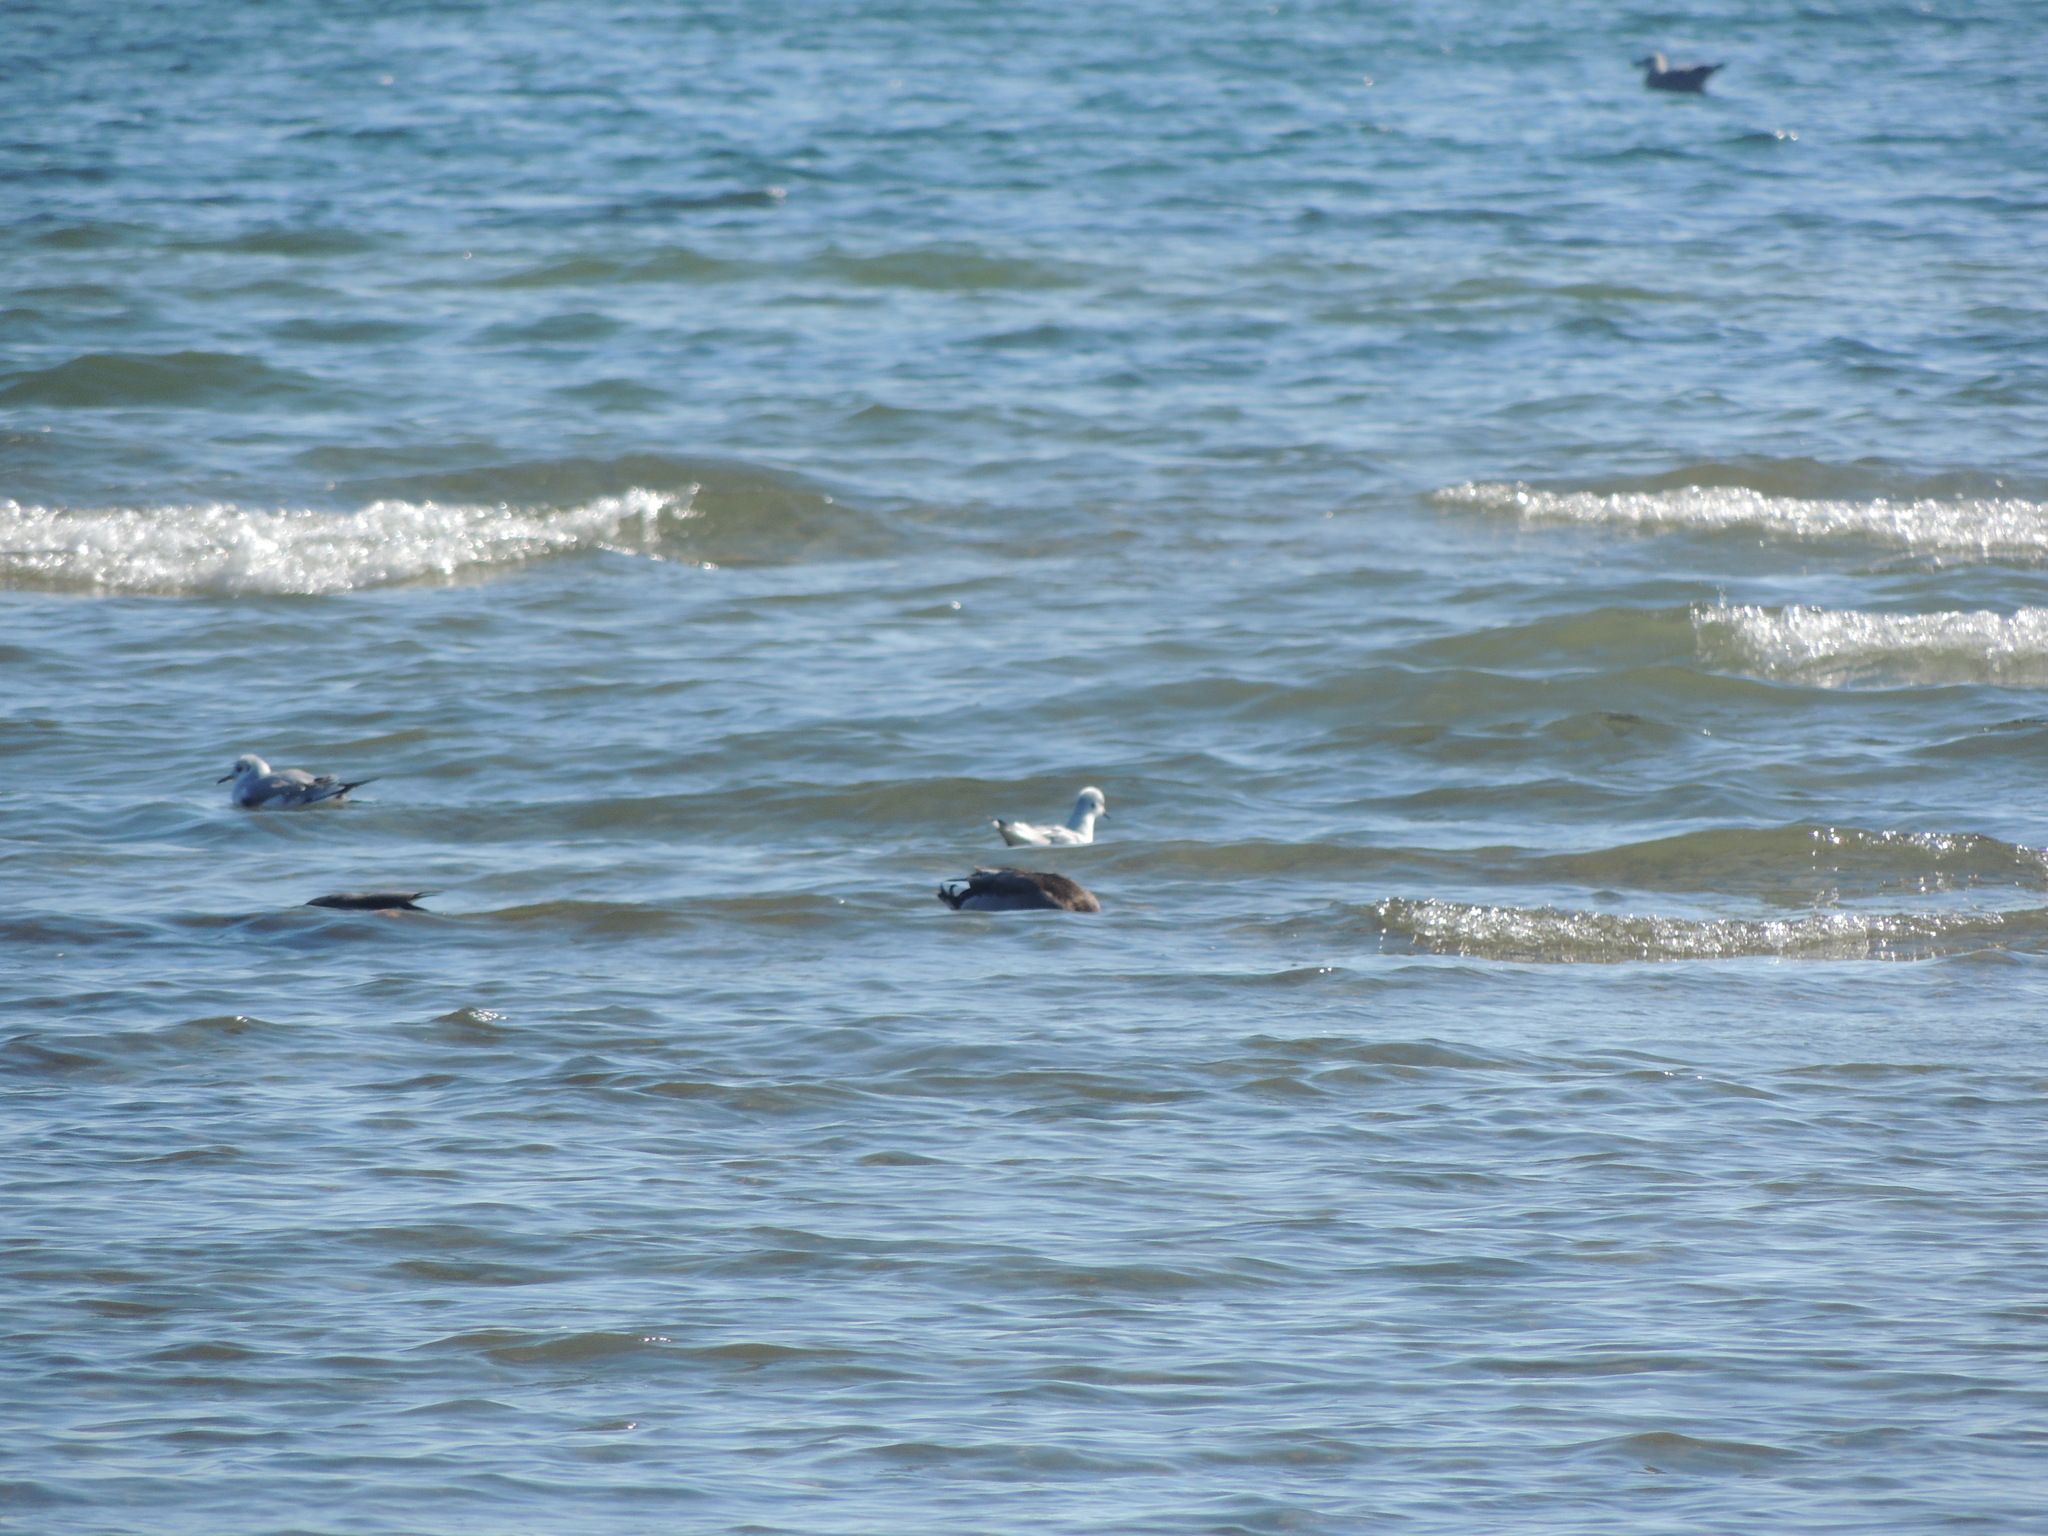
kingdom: Animalia
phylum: Chordata
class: Aves
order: Charadriiformes
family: Laridae
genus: Chroicocephalus
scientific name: Chroicocephalus philadelphia
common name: Bonaparte's gull
